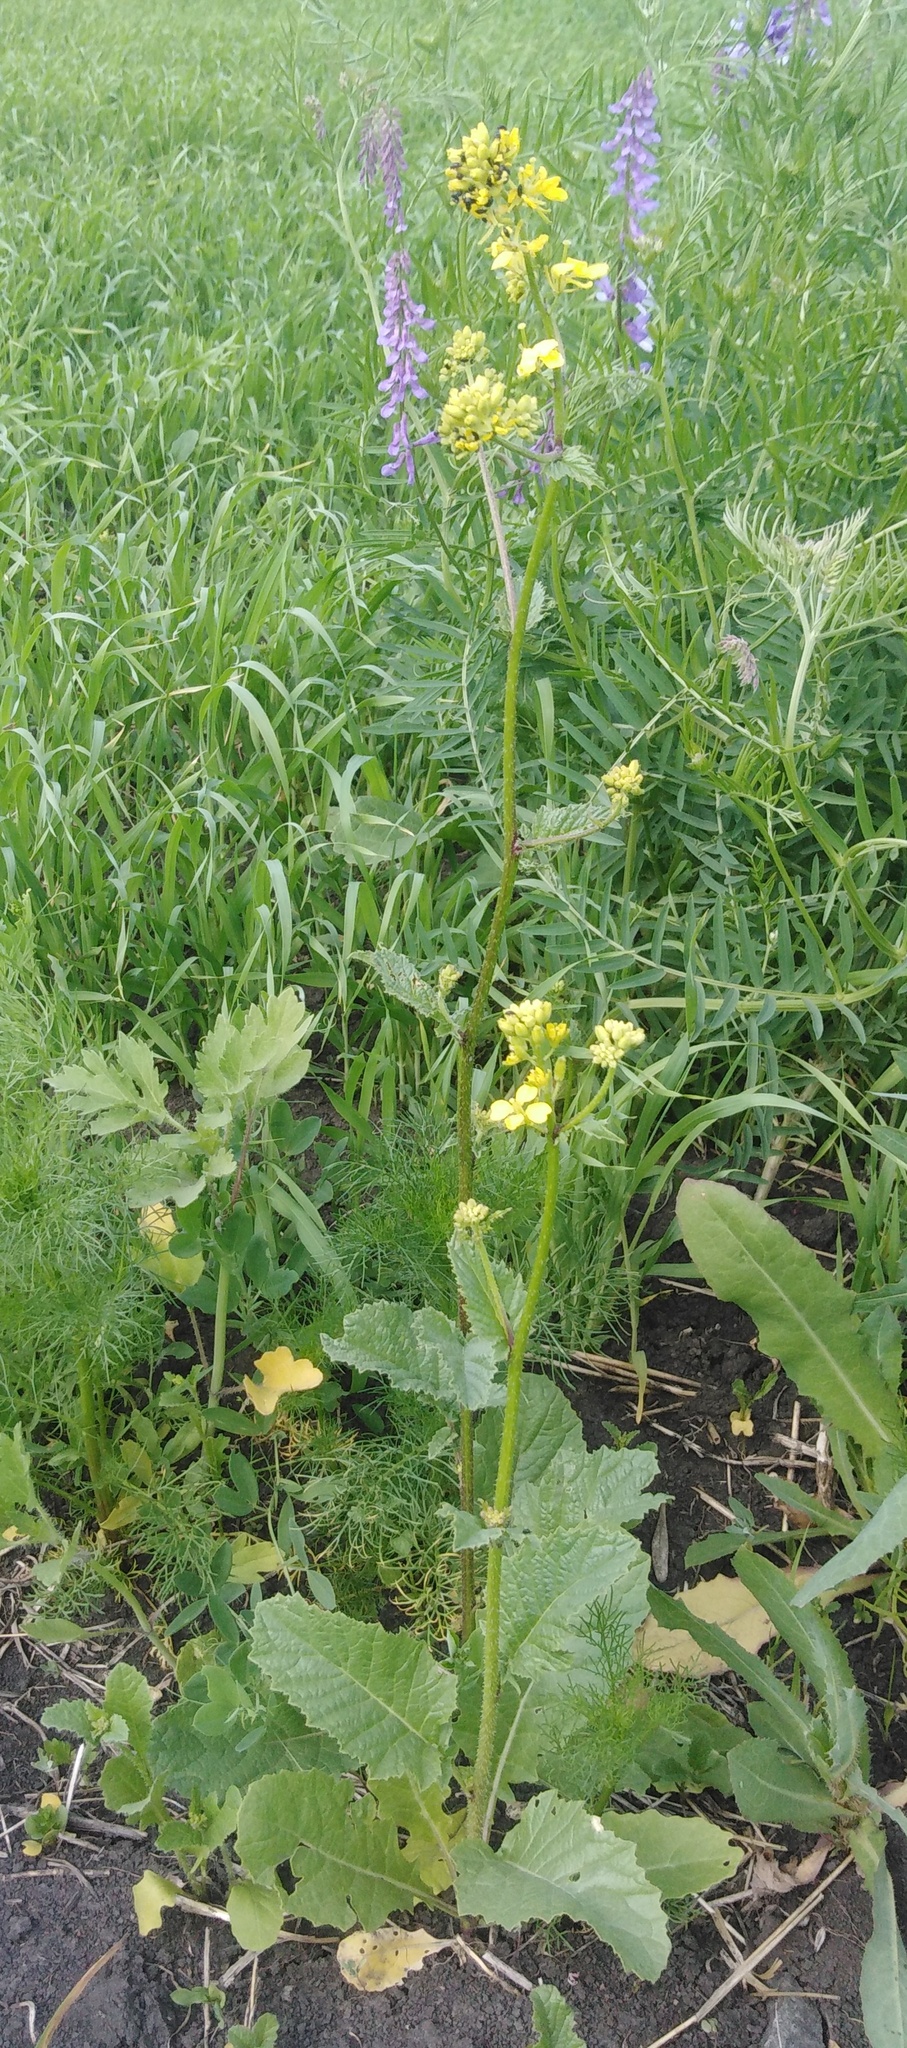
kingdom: Plantae
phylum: Tracheophyta
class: Magnoliopsida
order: Brassicales
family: Brassicaceae
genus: Sinapis
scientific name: Sinapis arvensis
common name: Charlock
